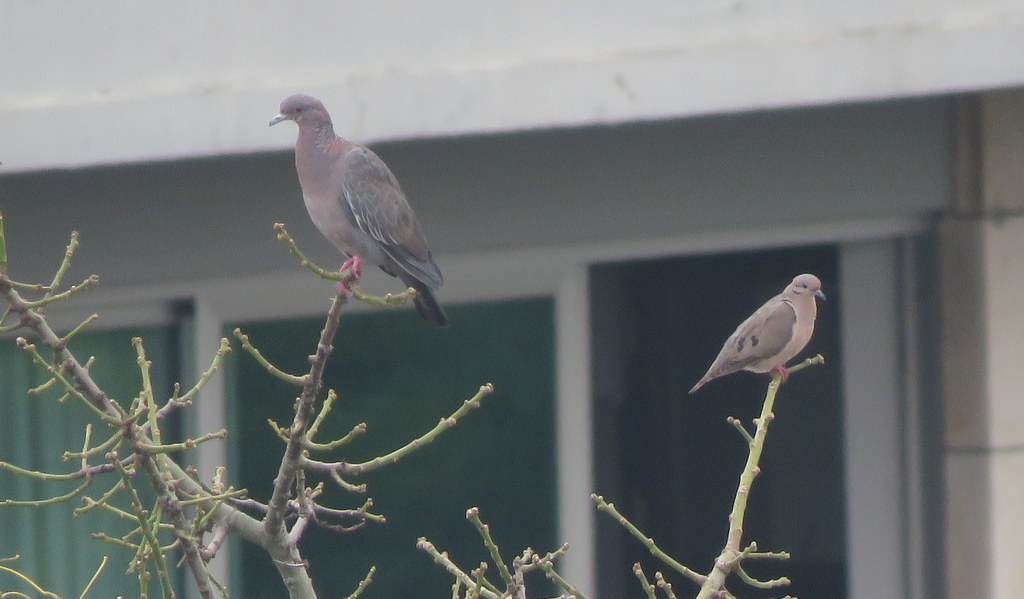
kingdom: Animalia
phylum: Chordata
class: Aves
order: Columbiformes
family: Columbidae
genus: Zenaida
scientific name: Zenaida auriculata
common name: Eared dove
